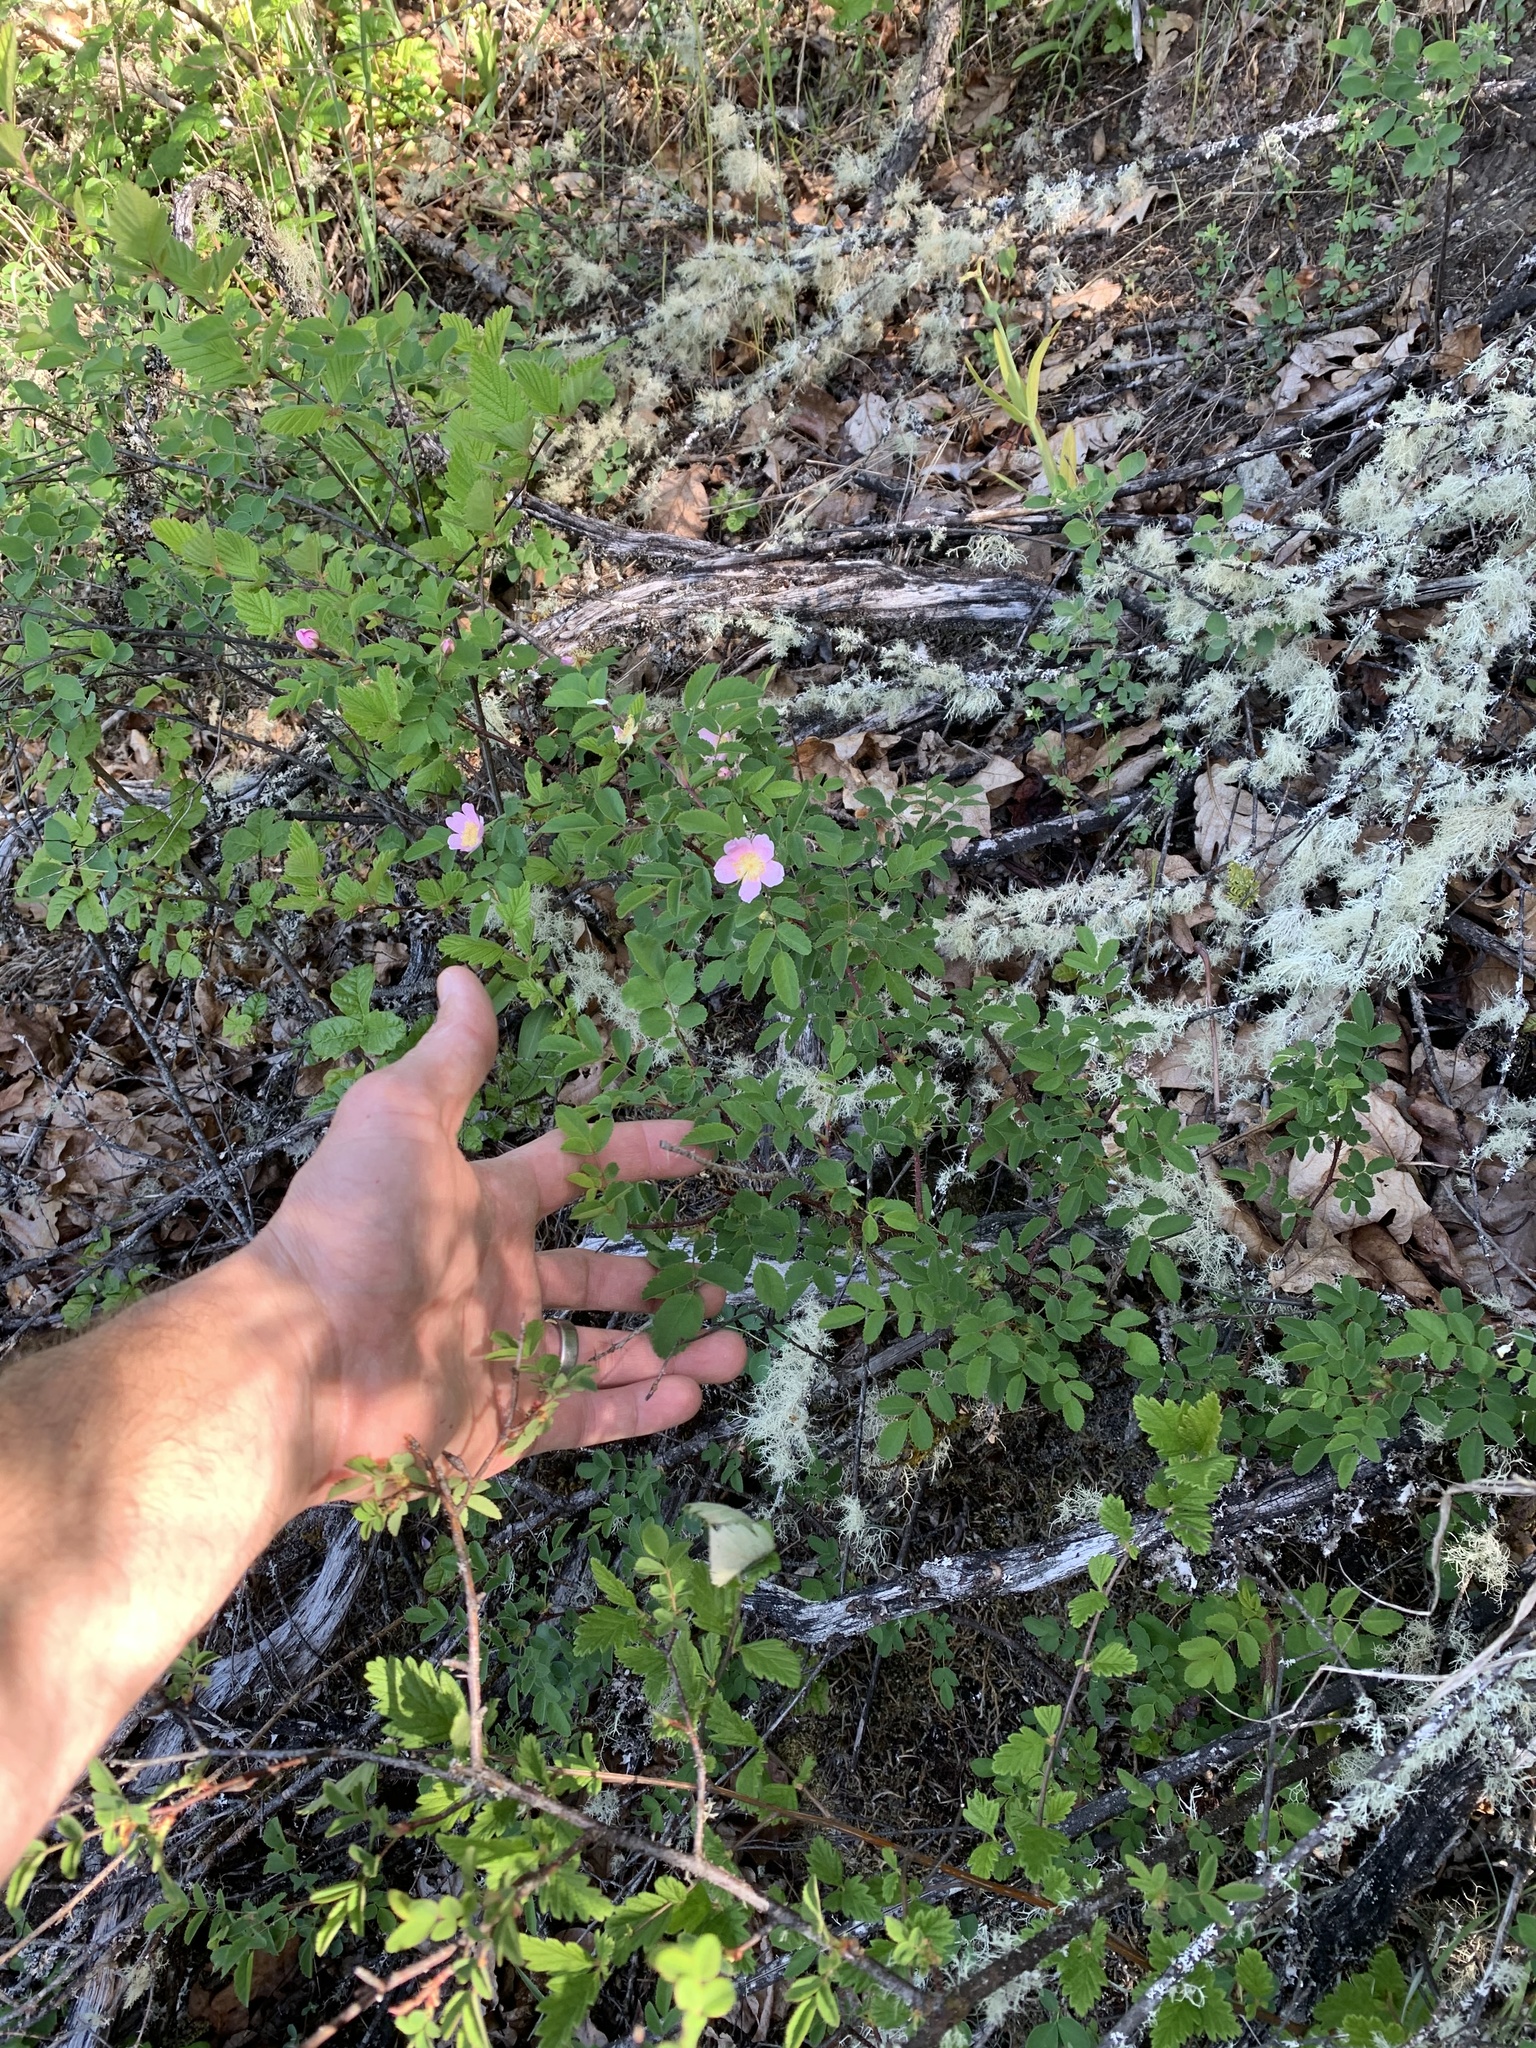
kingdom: Plantae
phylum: Tracheophyta
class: Magnoliopsida
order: Rosales
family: Rosaceae
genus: Rosa
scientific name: Rosa nutkana
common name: Nootka rose
